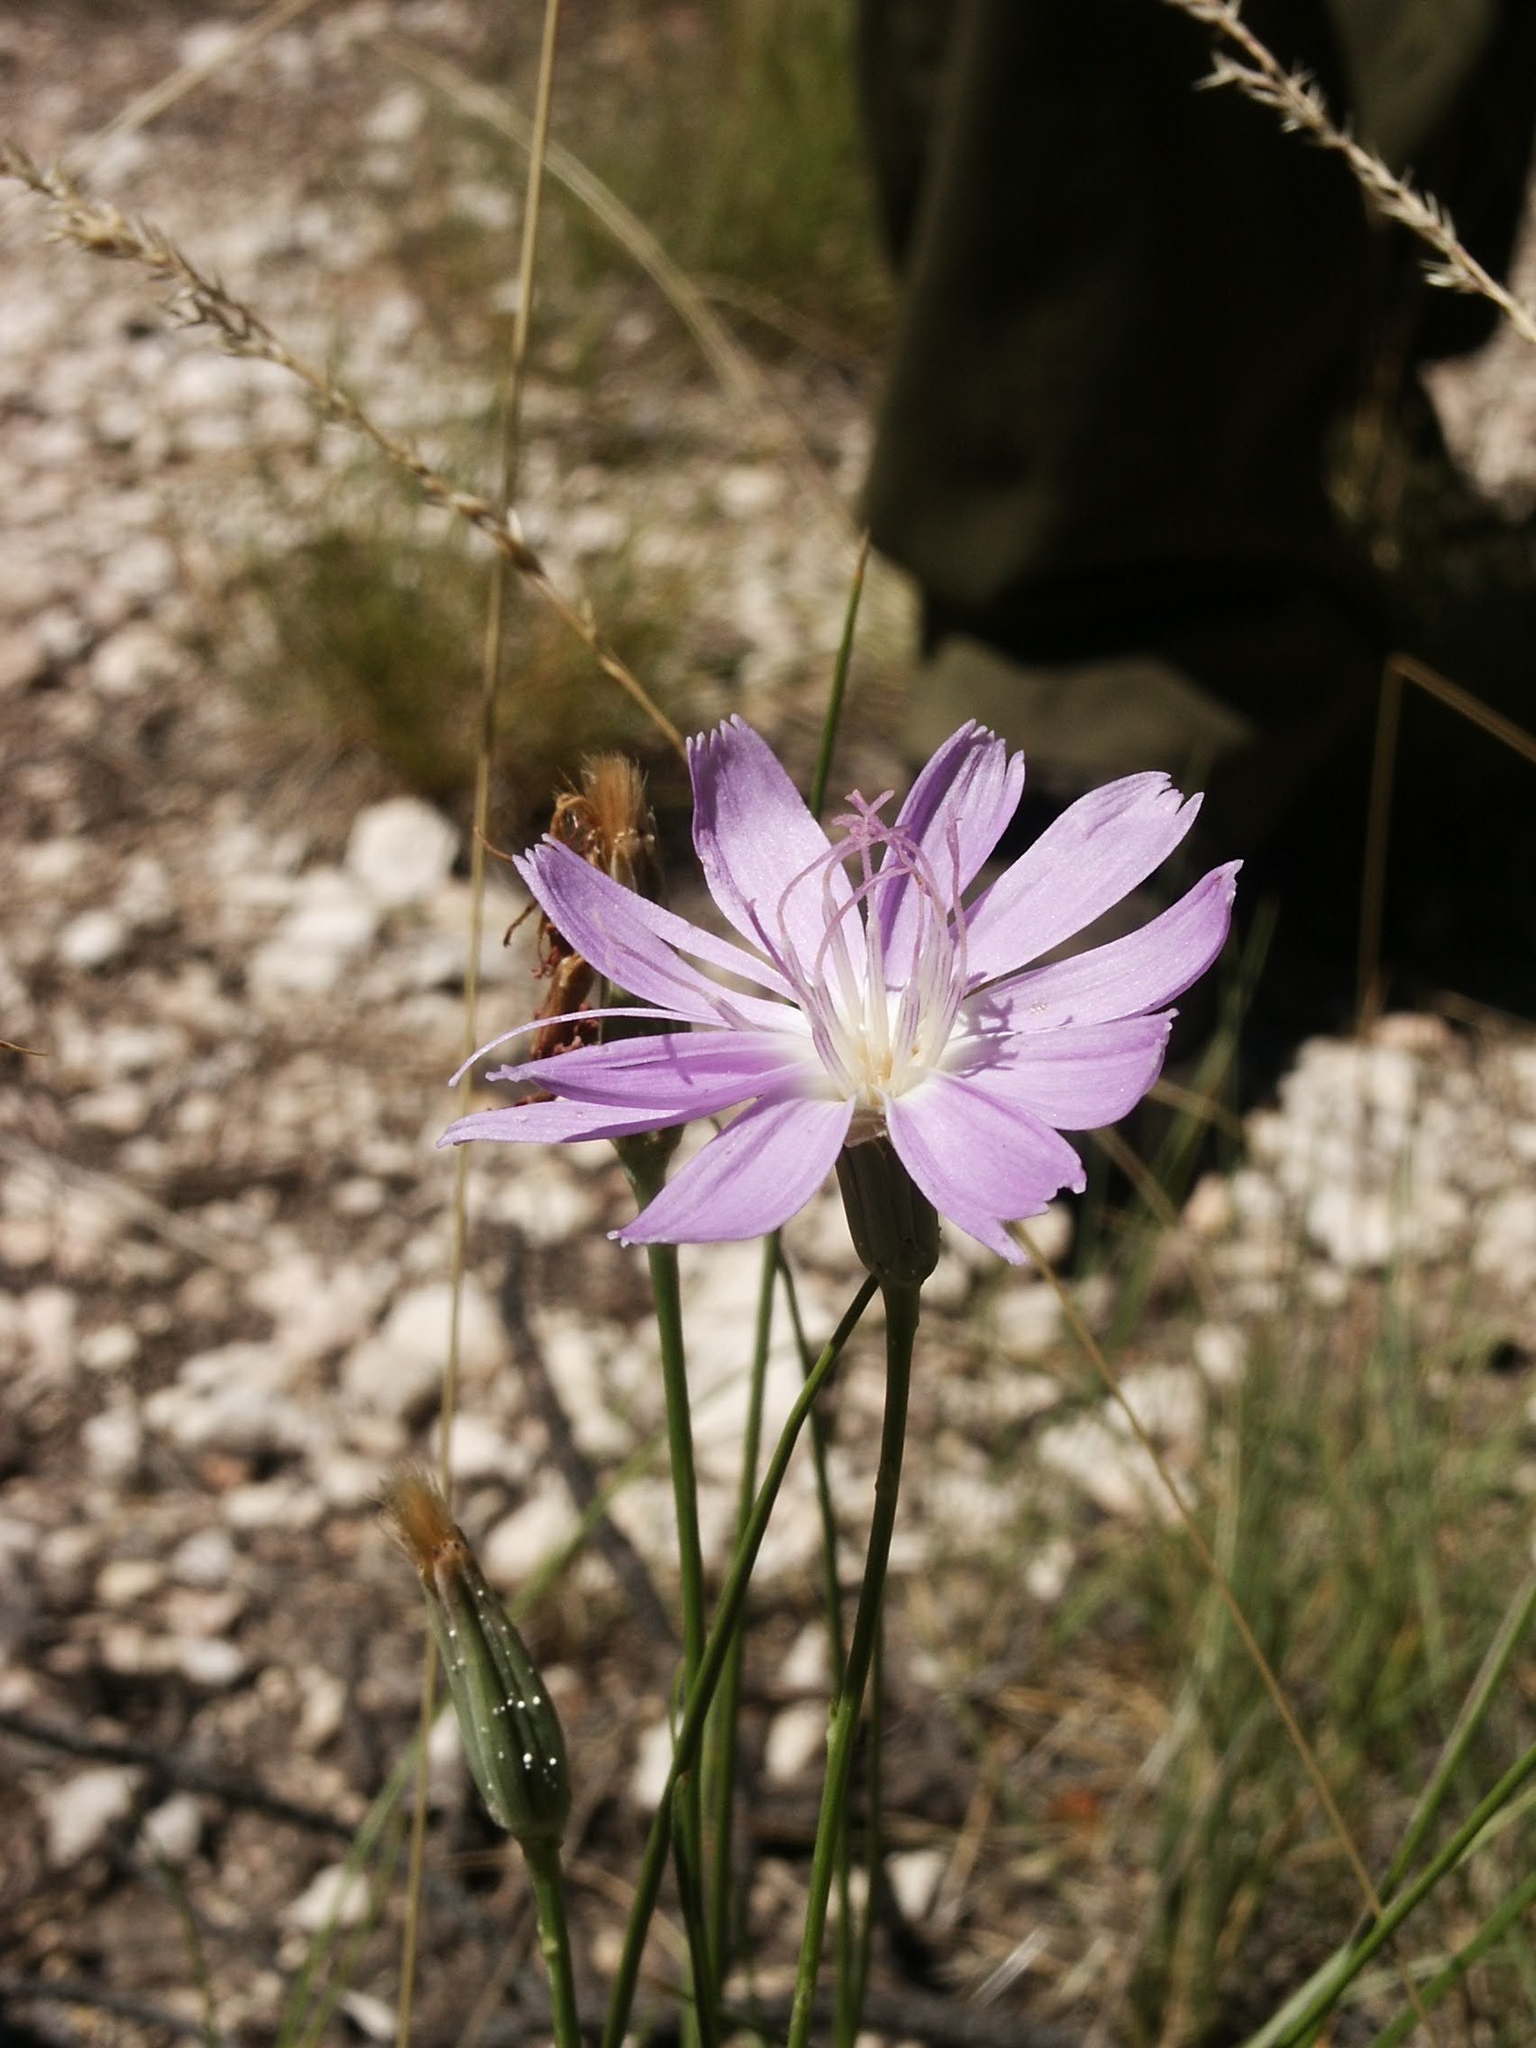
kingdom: Plantae
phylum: Tracheophyta
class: Magnoliopsida
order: Asterales
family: Asteraceae
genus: Lygodesmia
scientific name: Lygodesmia grandiflora
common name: Showy rush-pink
